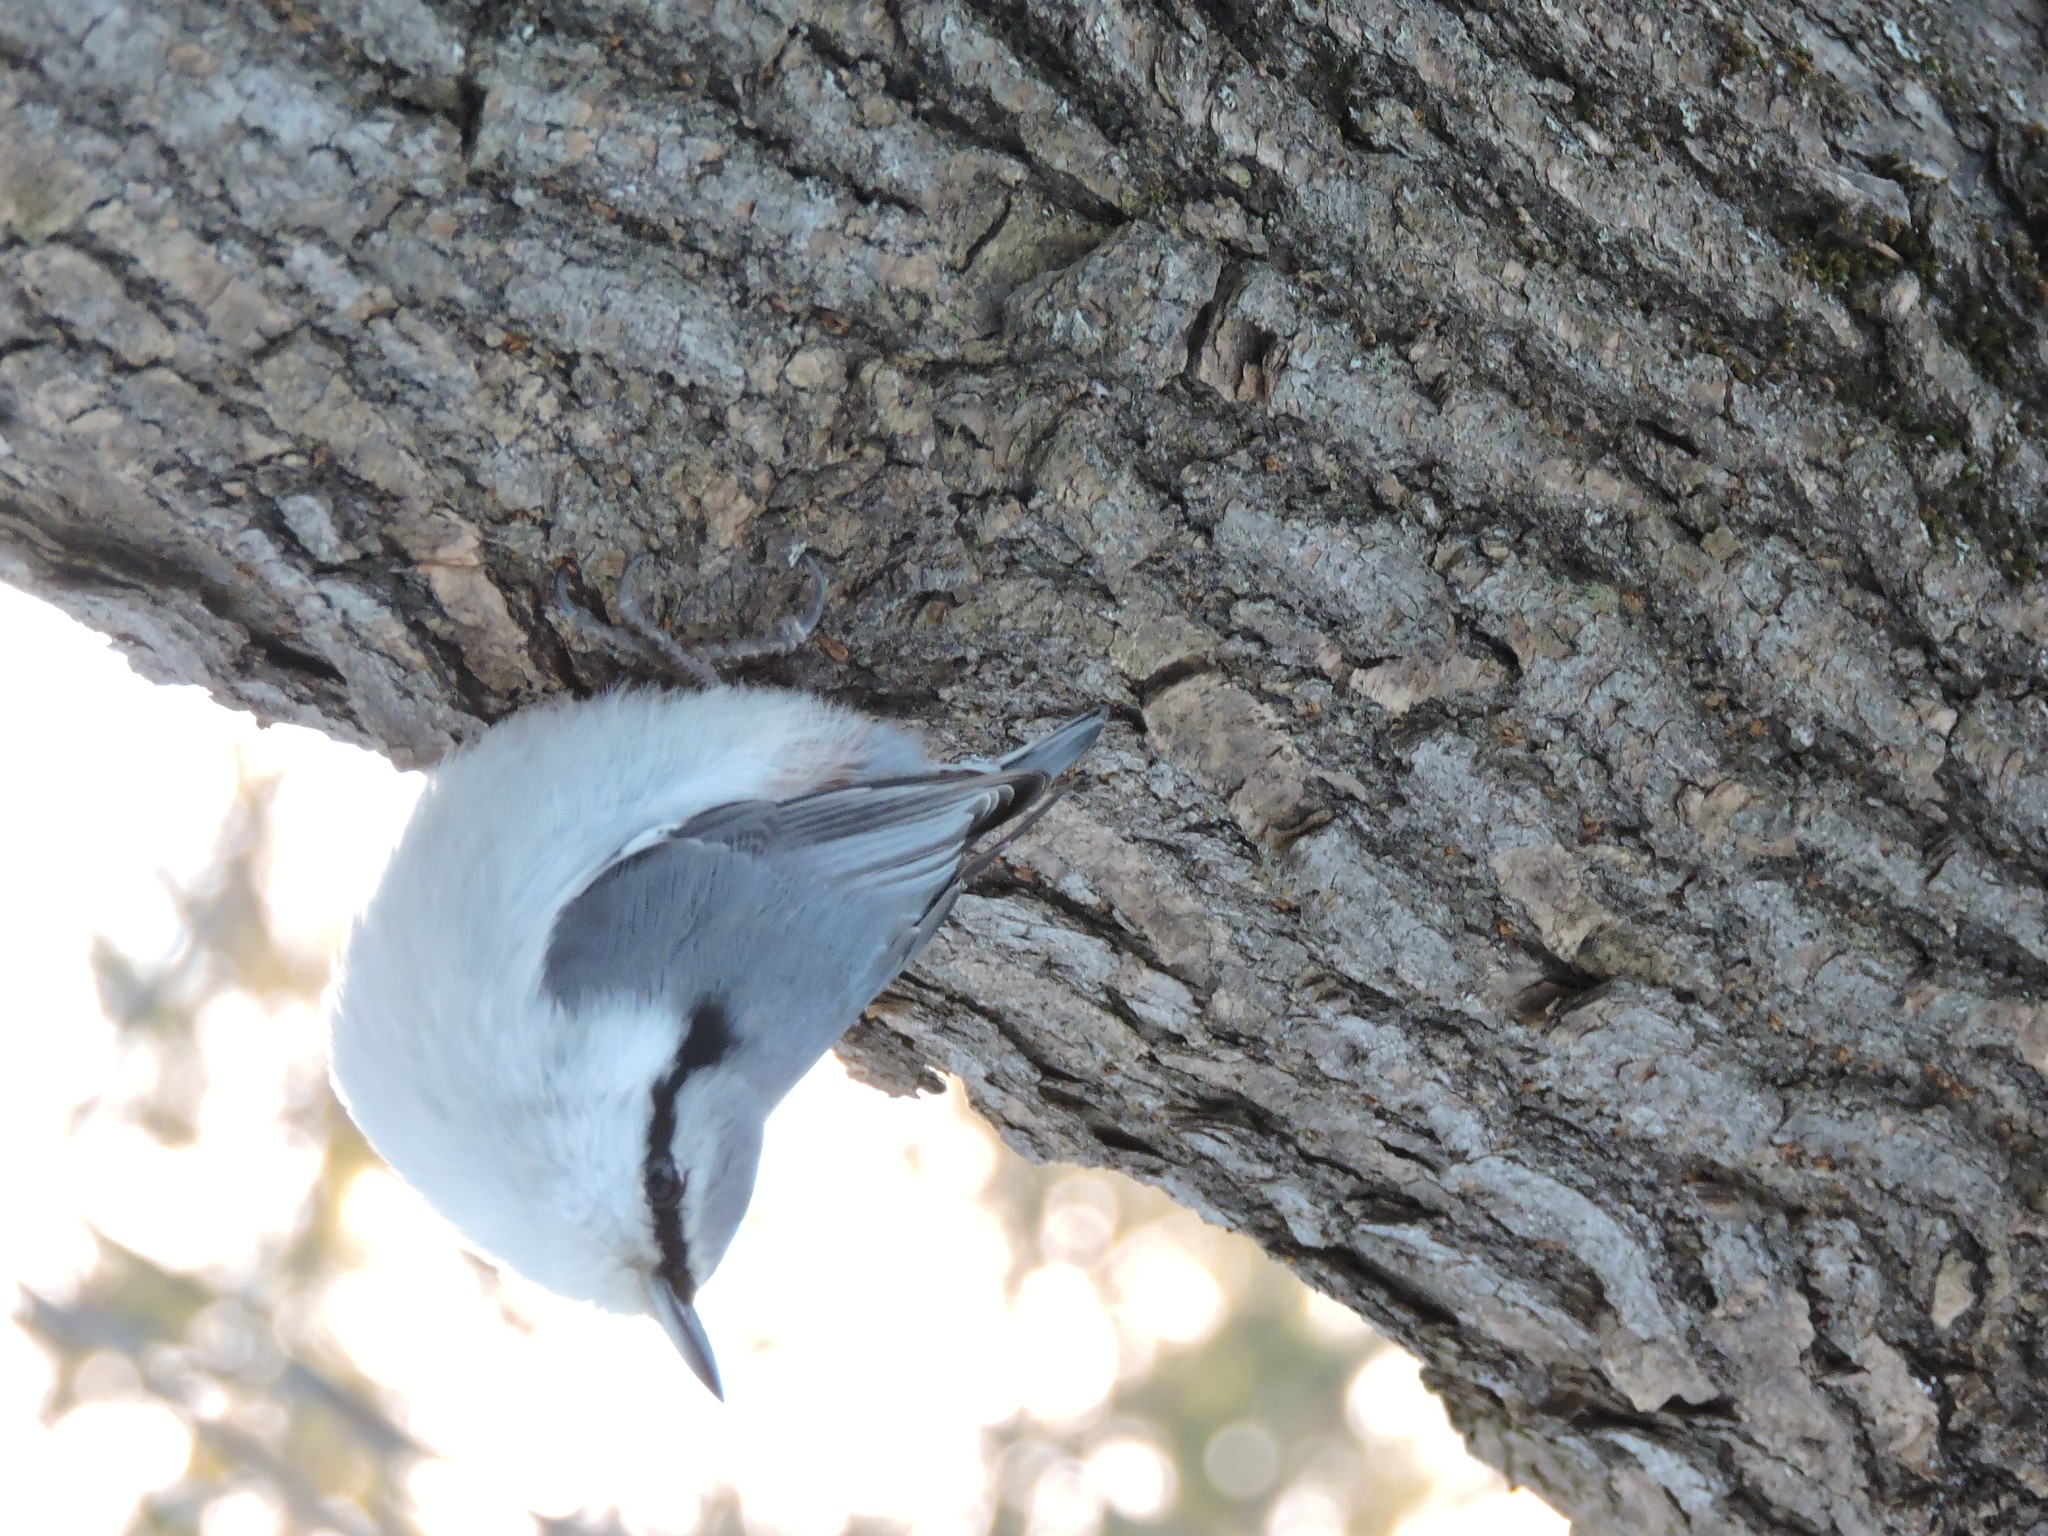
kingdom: Animalia
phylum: Chordata
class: Aves
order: Passeriformes
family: Sittidae
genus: Sitta
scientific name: Sitta europaea
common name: Eurasian nuthatch
